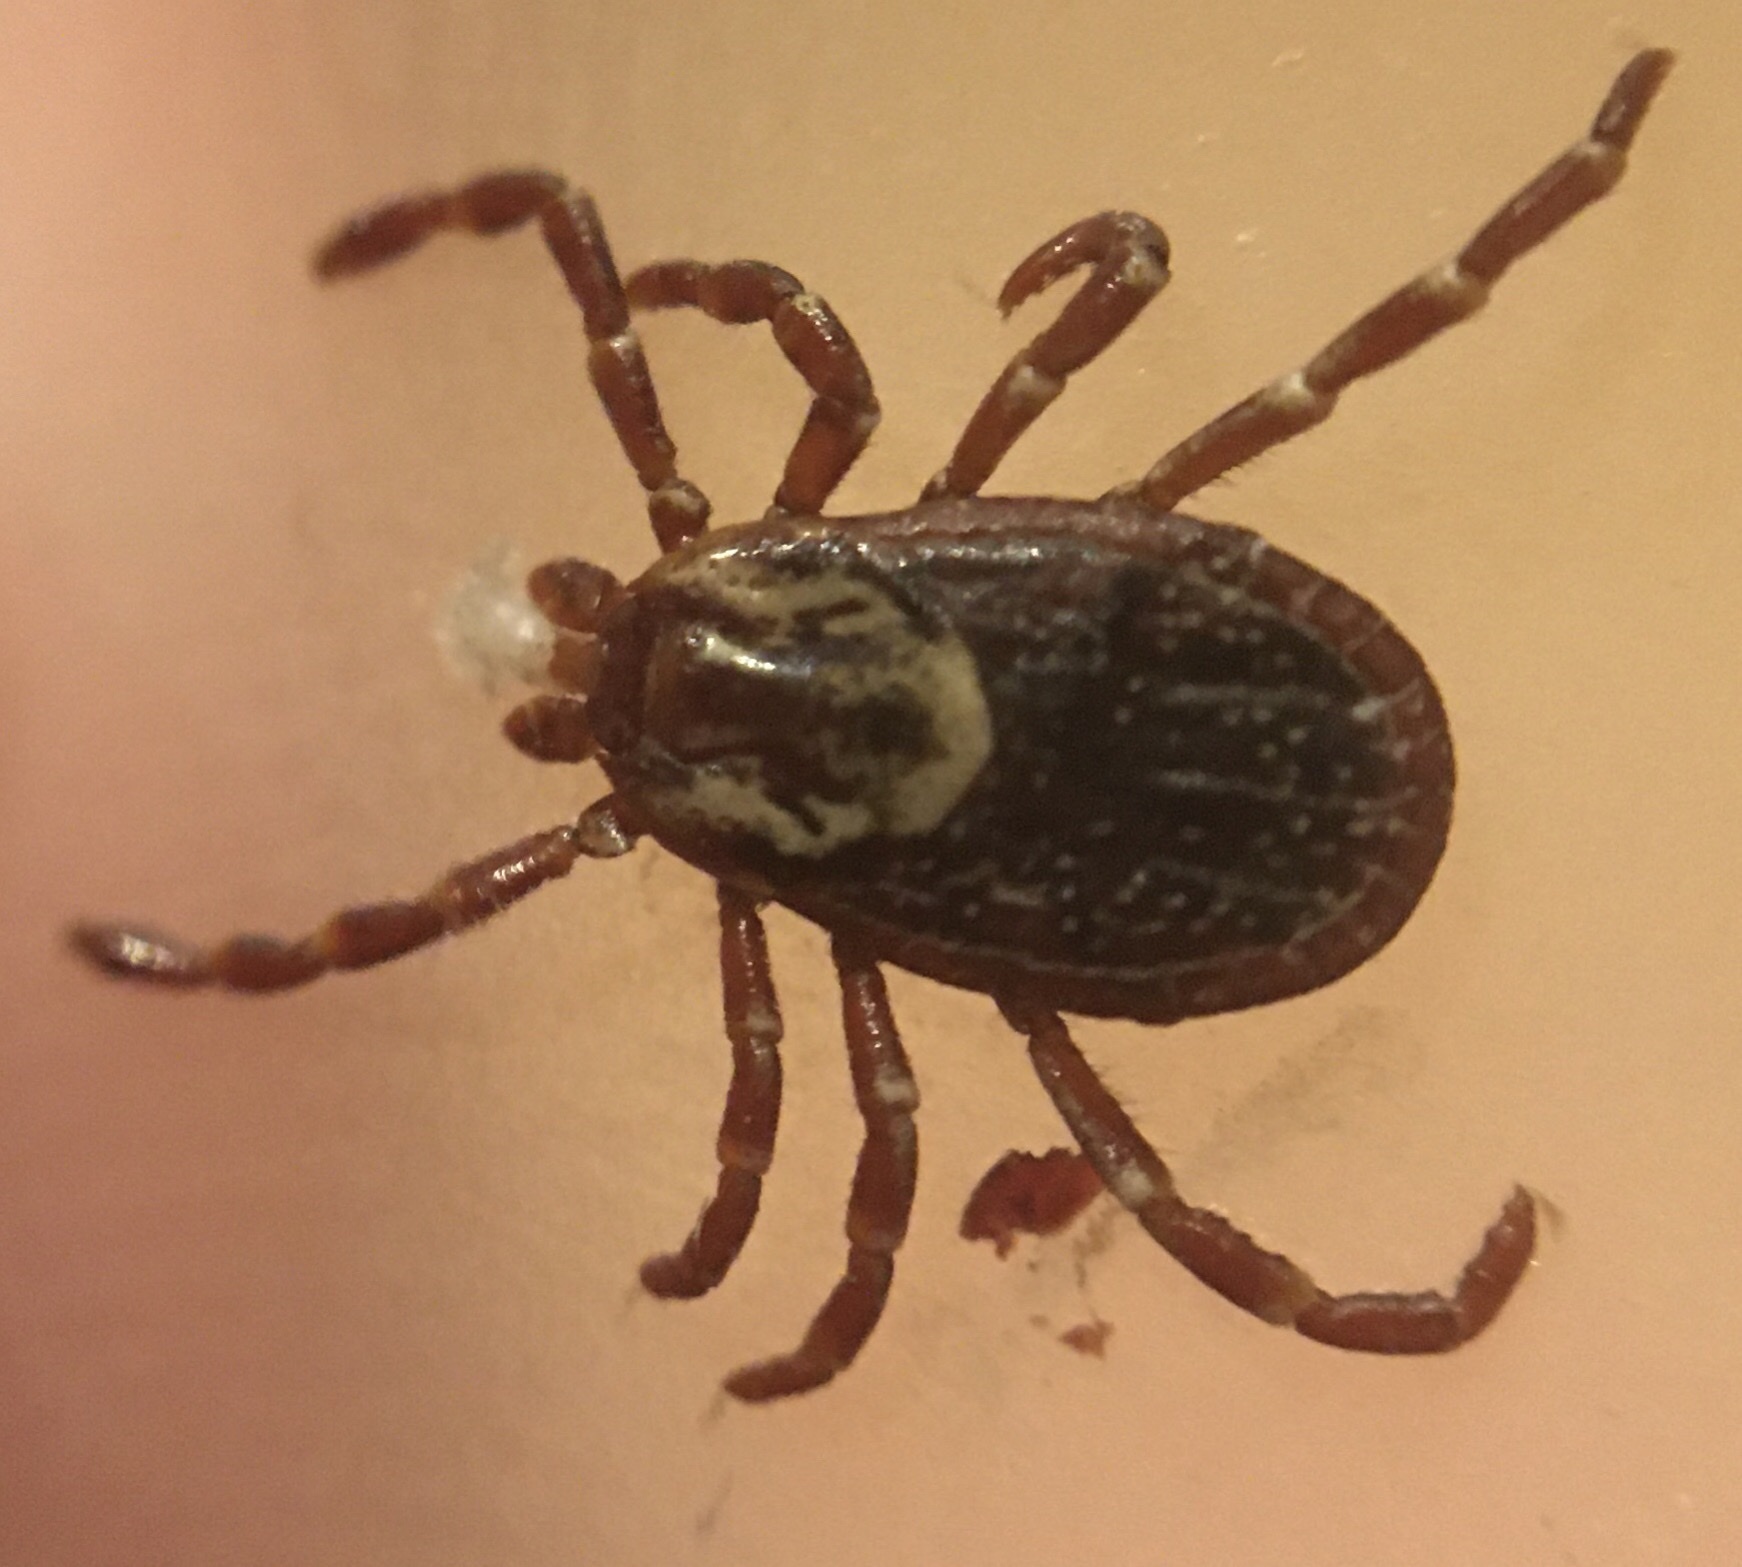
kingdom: Animalia
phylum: Arthropoda
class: Arachnida
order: Ixodida
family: Ixodidae
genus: Dermacentor
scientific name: Dermacentor variabilis
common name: American dog tick
